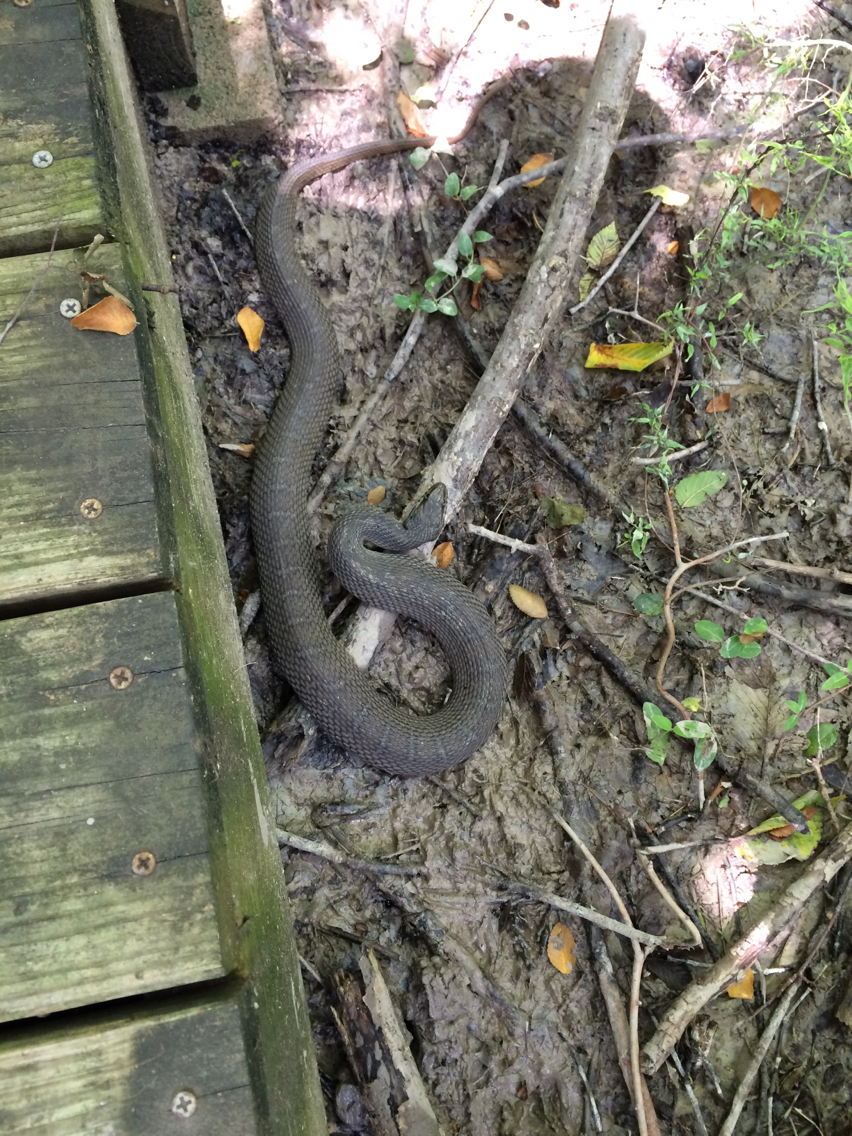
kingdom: Animalia
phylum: Chordata
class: Squamata
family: Colubridae
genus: Nerodia
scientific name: Nerodia erythrogaster
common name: Plainbelly water snake
